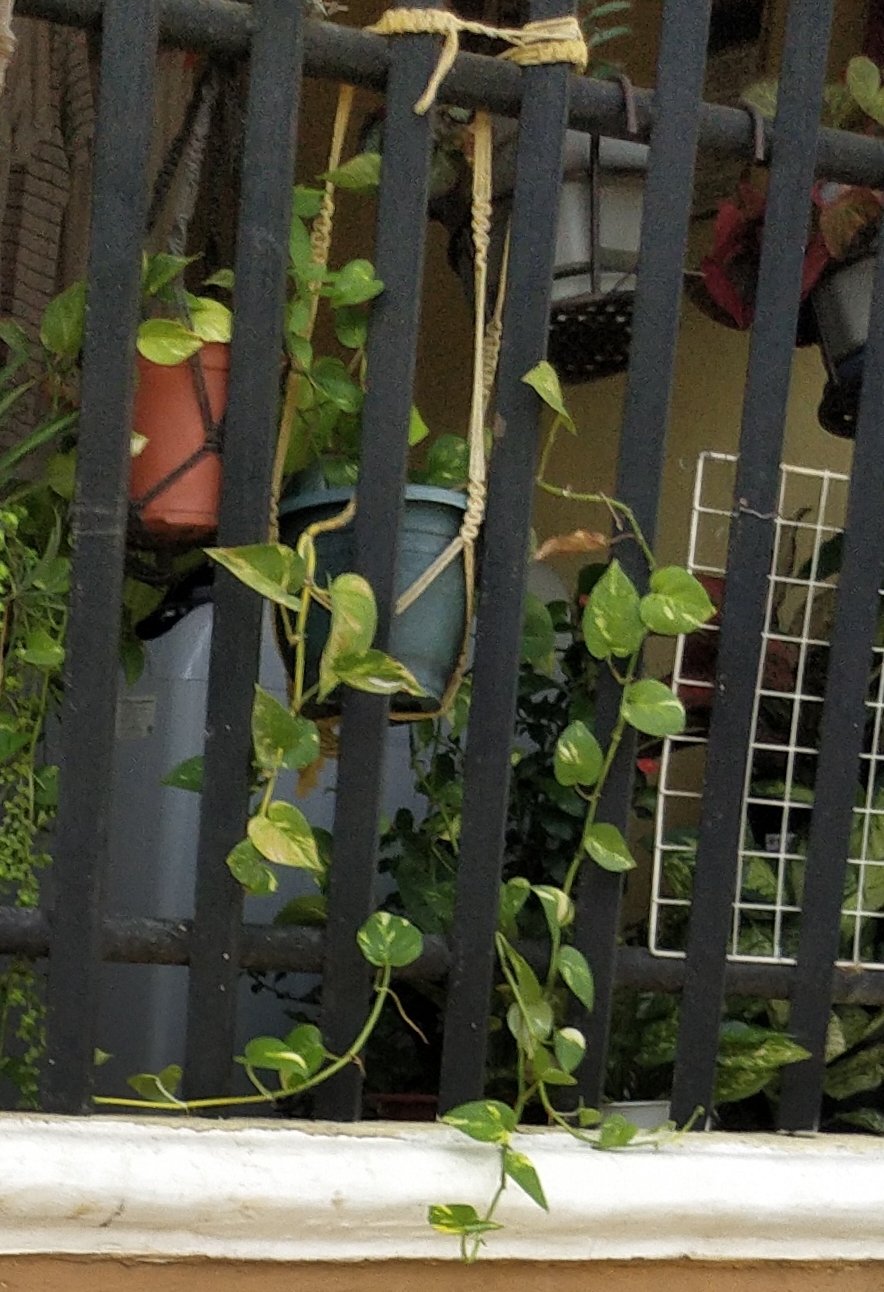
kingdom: Plantae
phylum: Tracheophyta
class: Liliopsida
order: Alismatales
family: Araceae
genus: Epipremnum
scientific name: Epipremnum aureum
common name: Golden hunter's-robe
